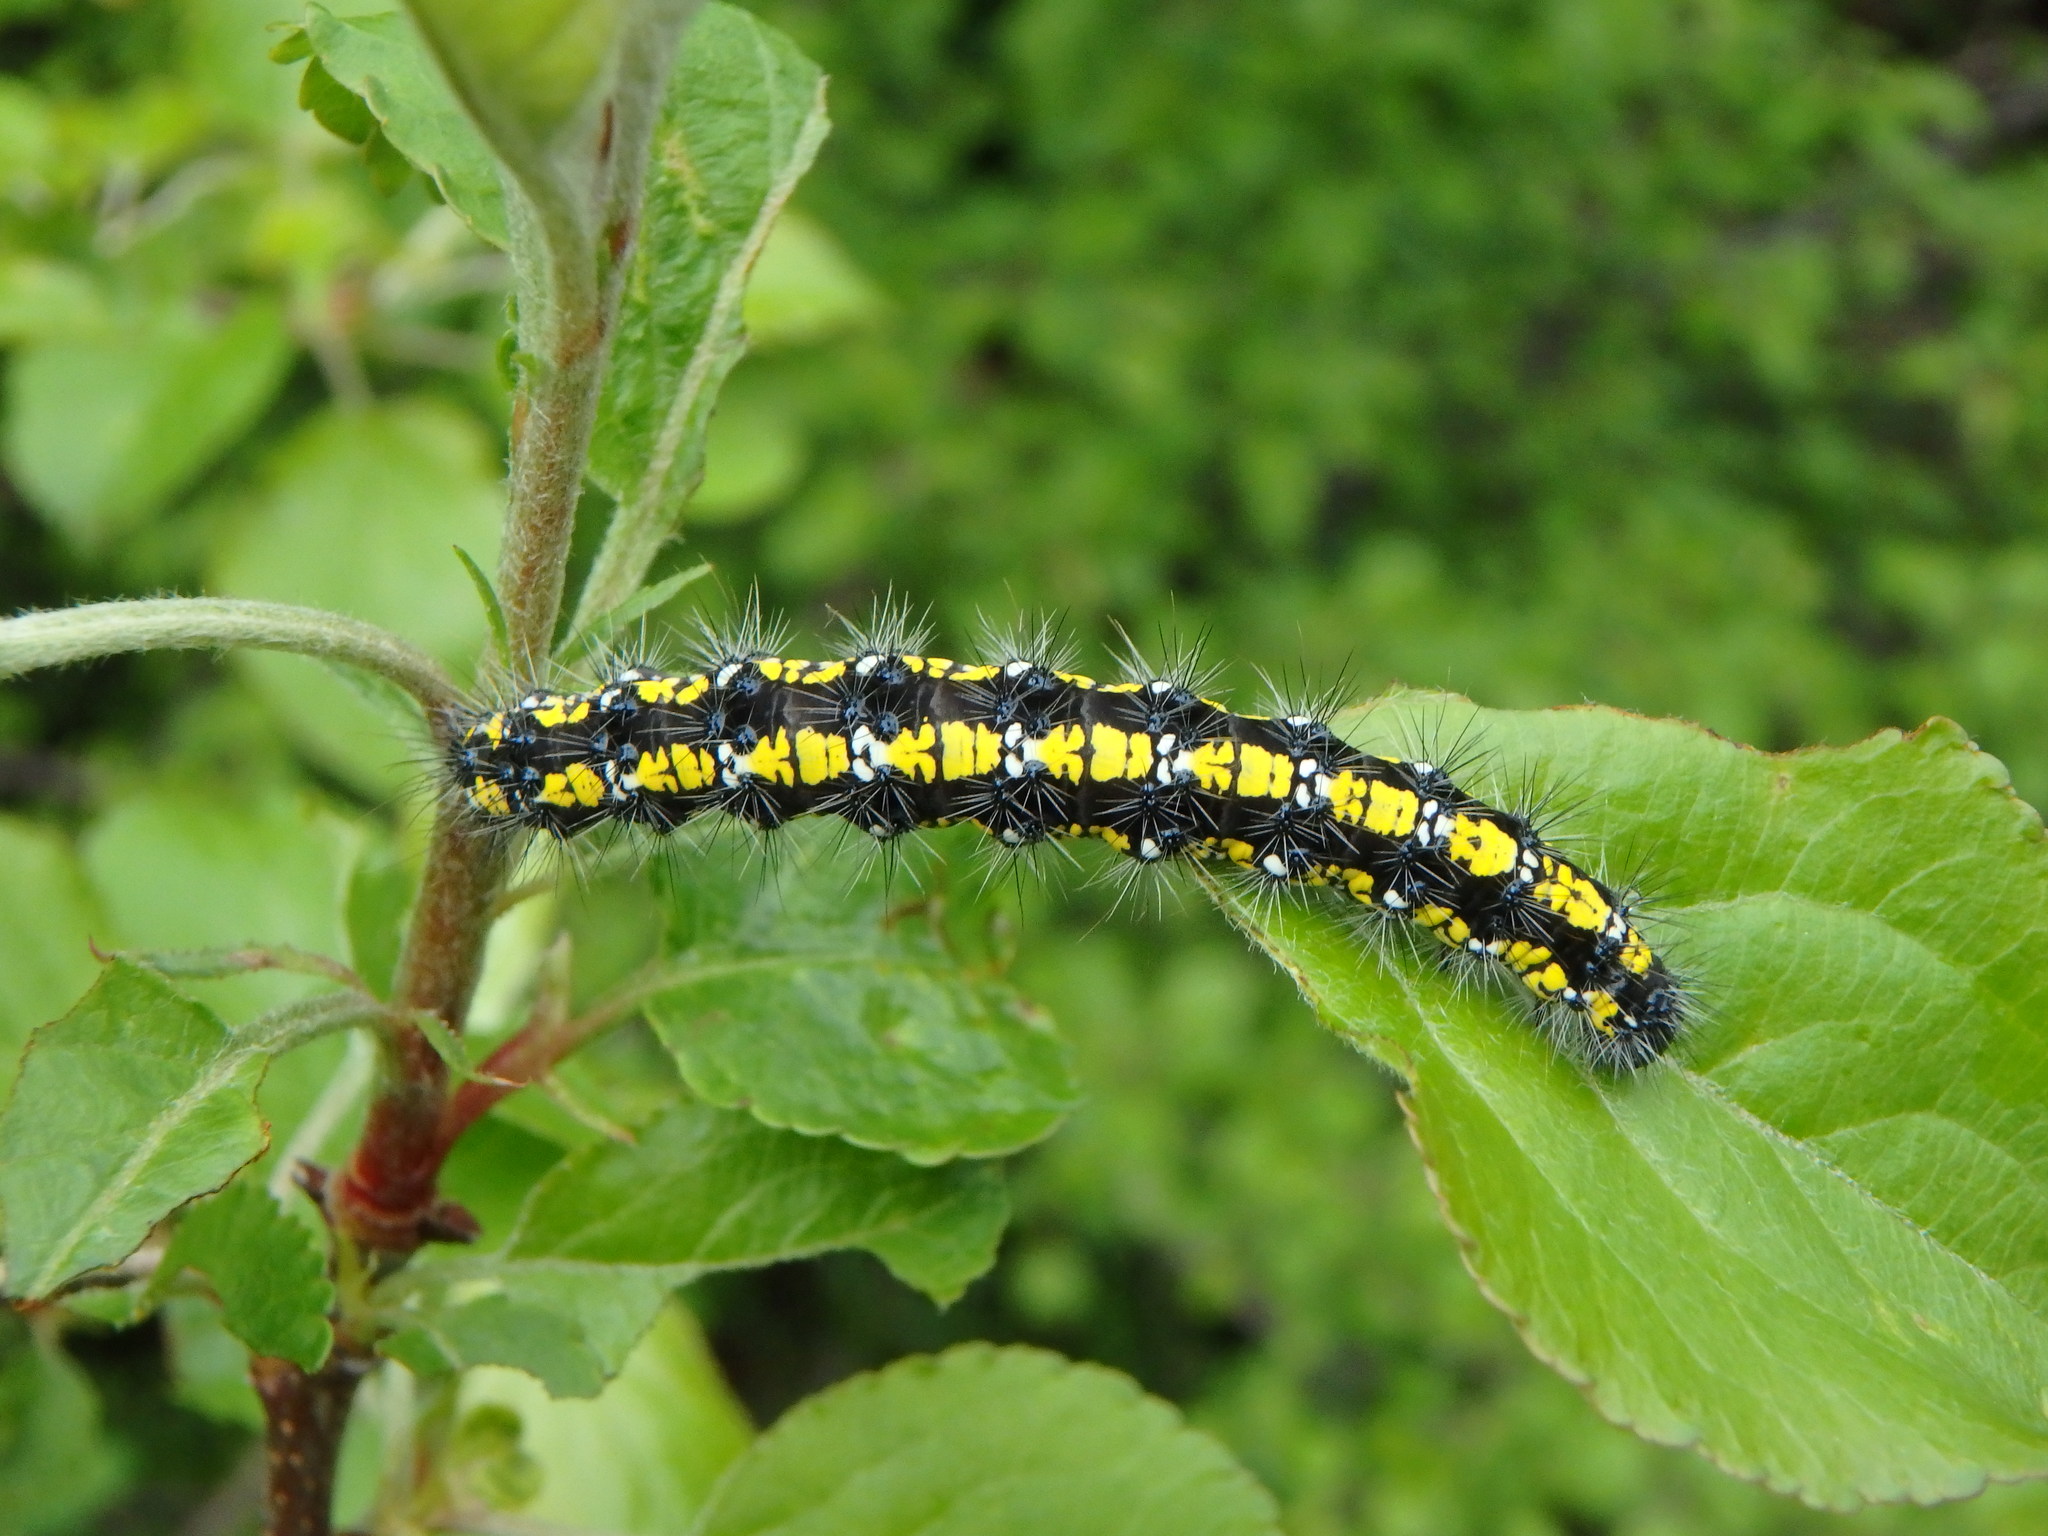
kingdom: Animalia
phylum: Arthropoda
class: Insecta
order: Lepidoptera
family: Erebidae
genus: Callimorpha
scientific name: Callimorpha dominula
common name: Scarlet tiger
